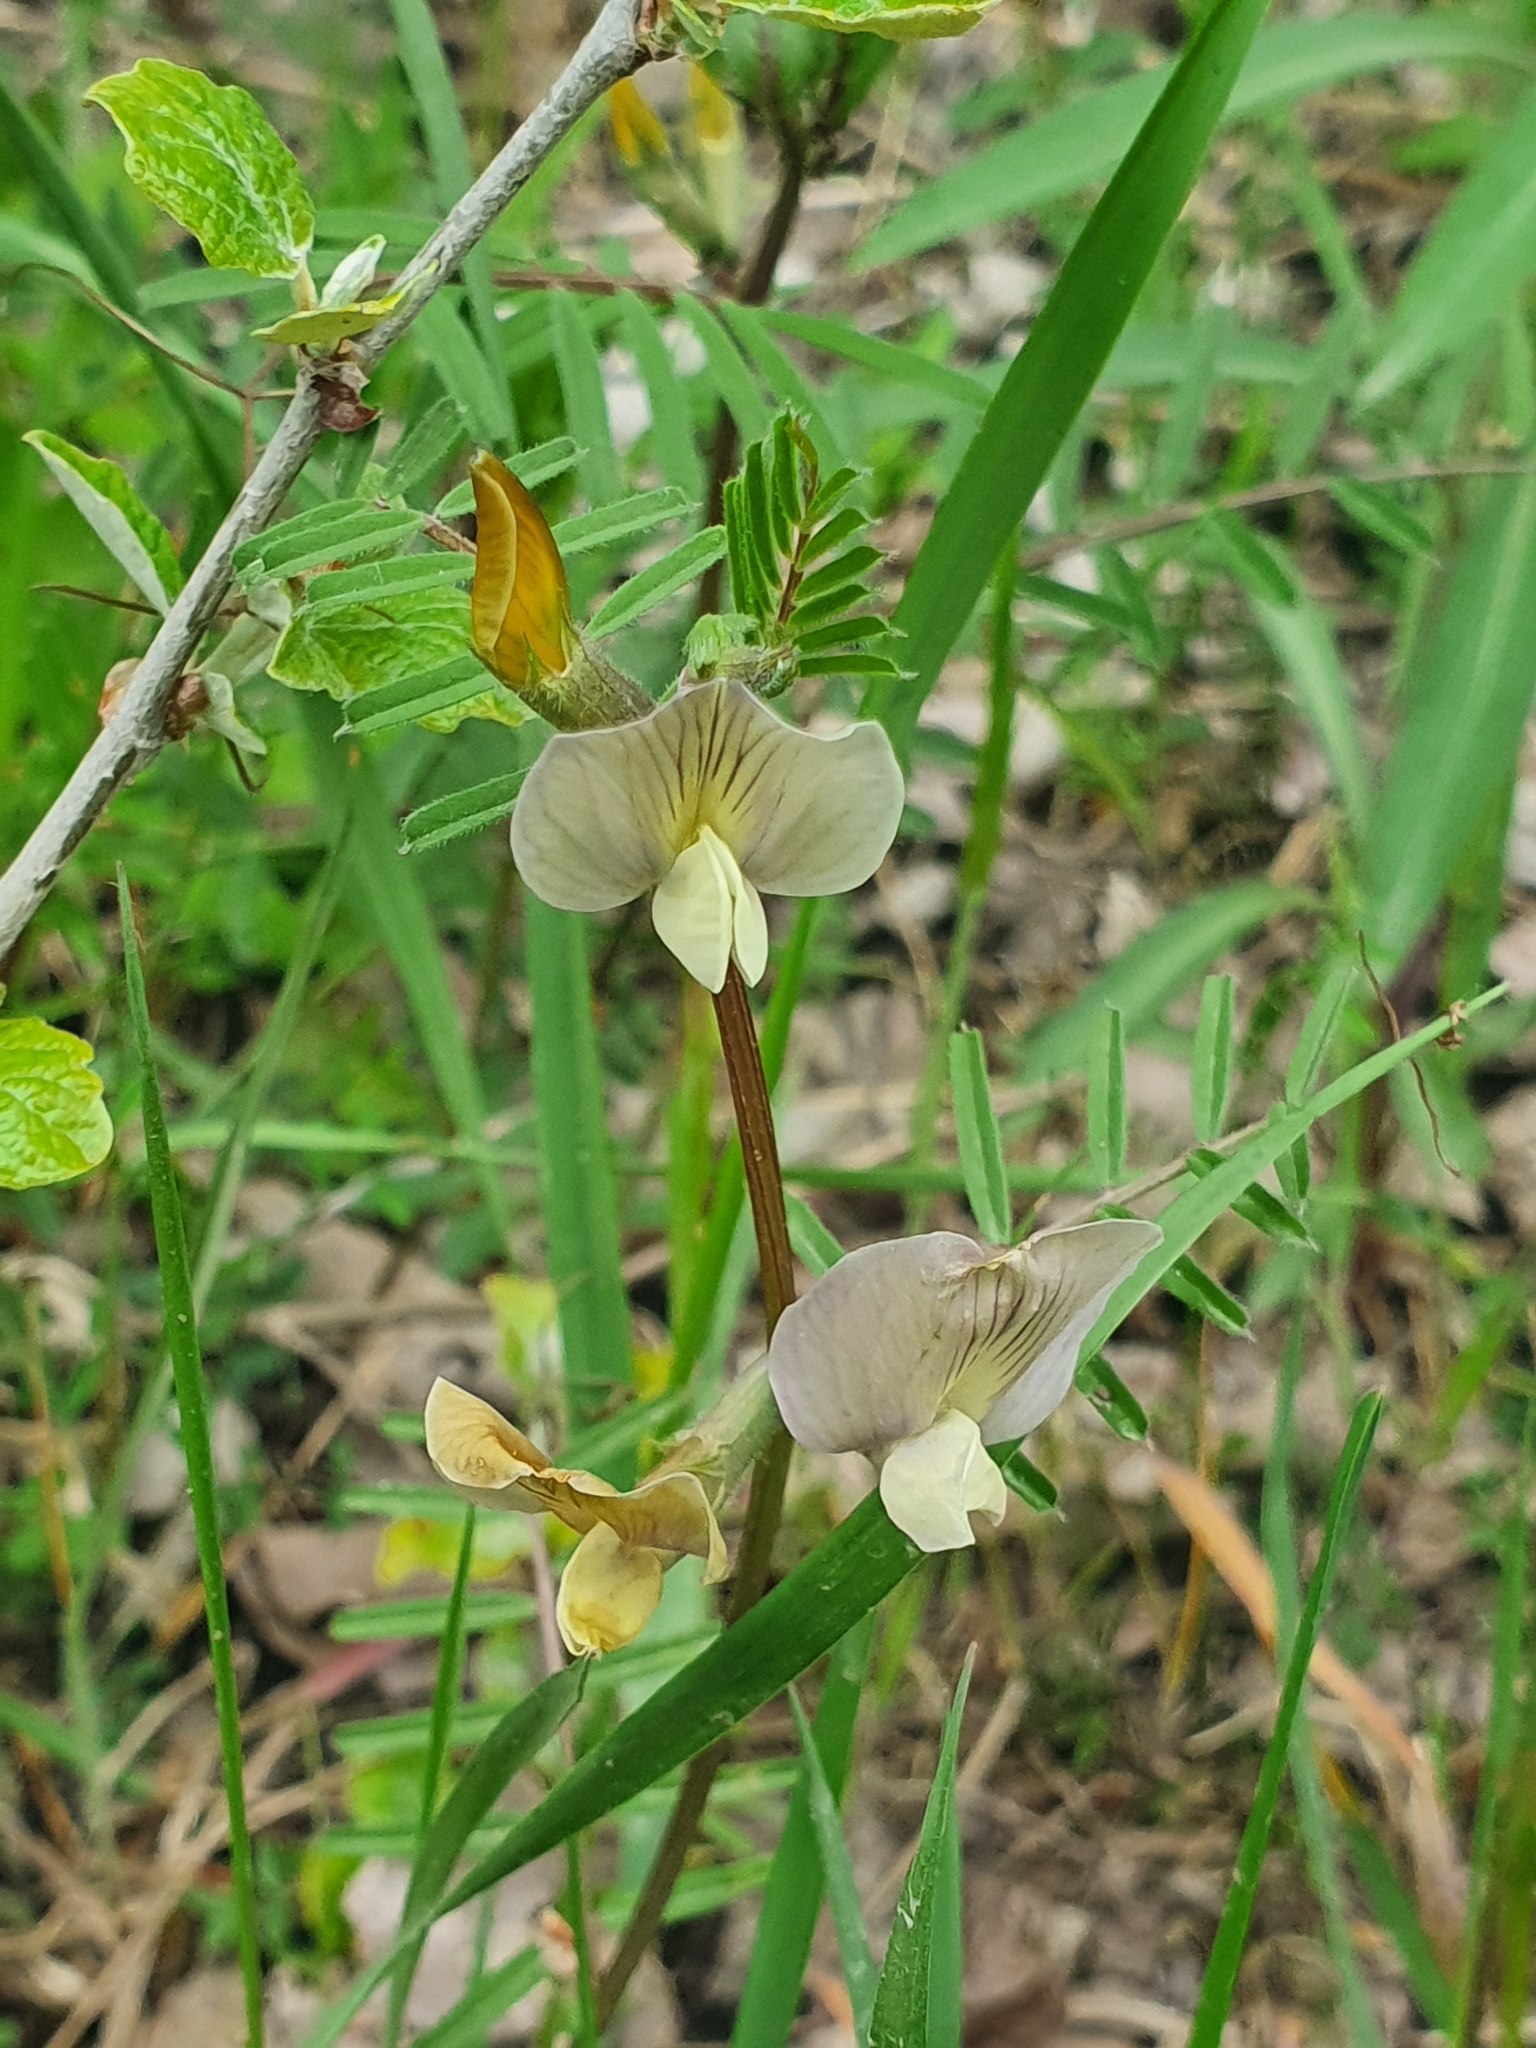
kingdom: Plantae
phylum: Tracheophyta
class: Magnoliopsida
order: Fabales
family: Fabaceae
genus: Vicia
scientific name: Vicia grandiflora
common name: Large yellow vetch
